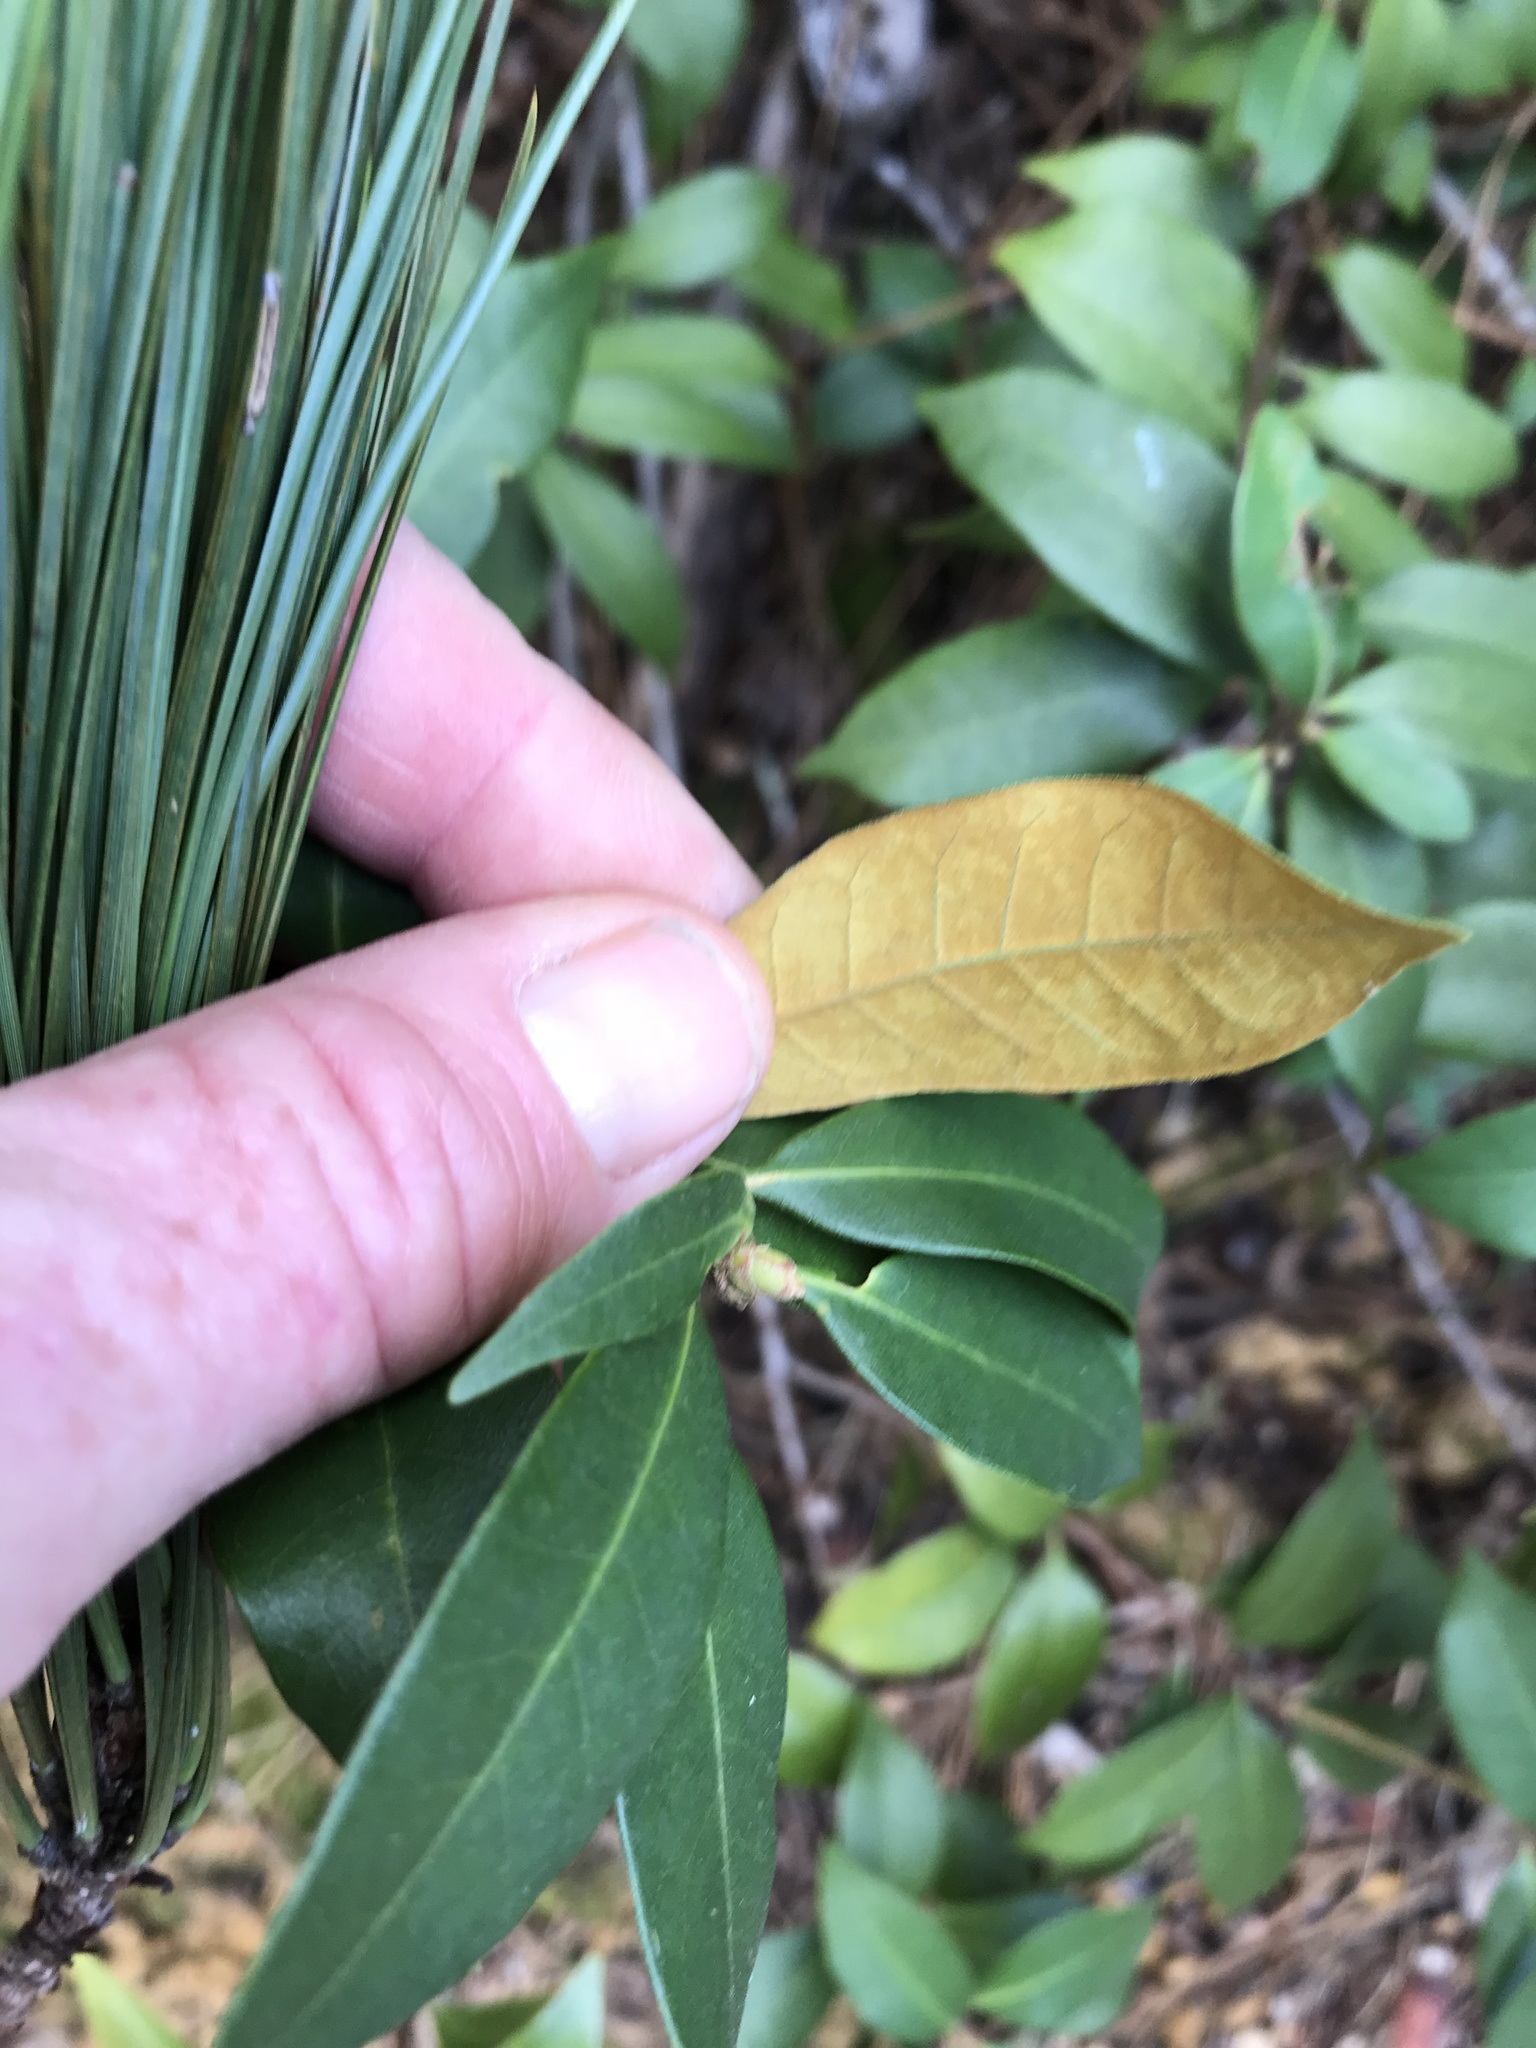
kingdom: Plantae
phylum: Tracheophyta
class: Magnoliopsida
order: Fagales
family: Fagaceae
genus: Chrysolepis
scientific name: Chrysolepis chrysophylla
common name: Giant chinquapin
